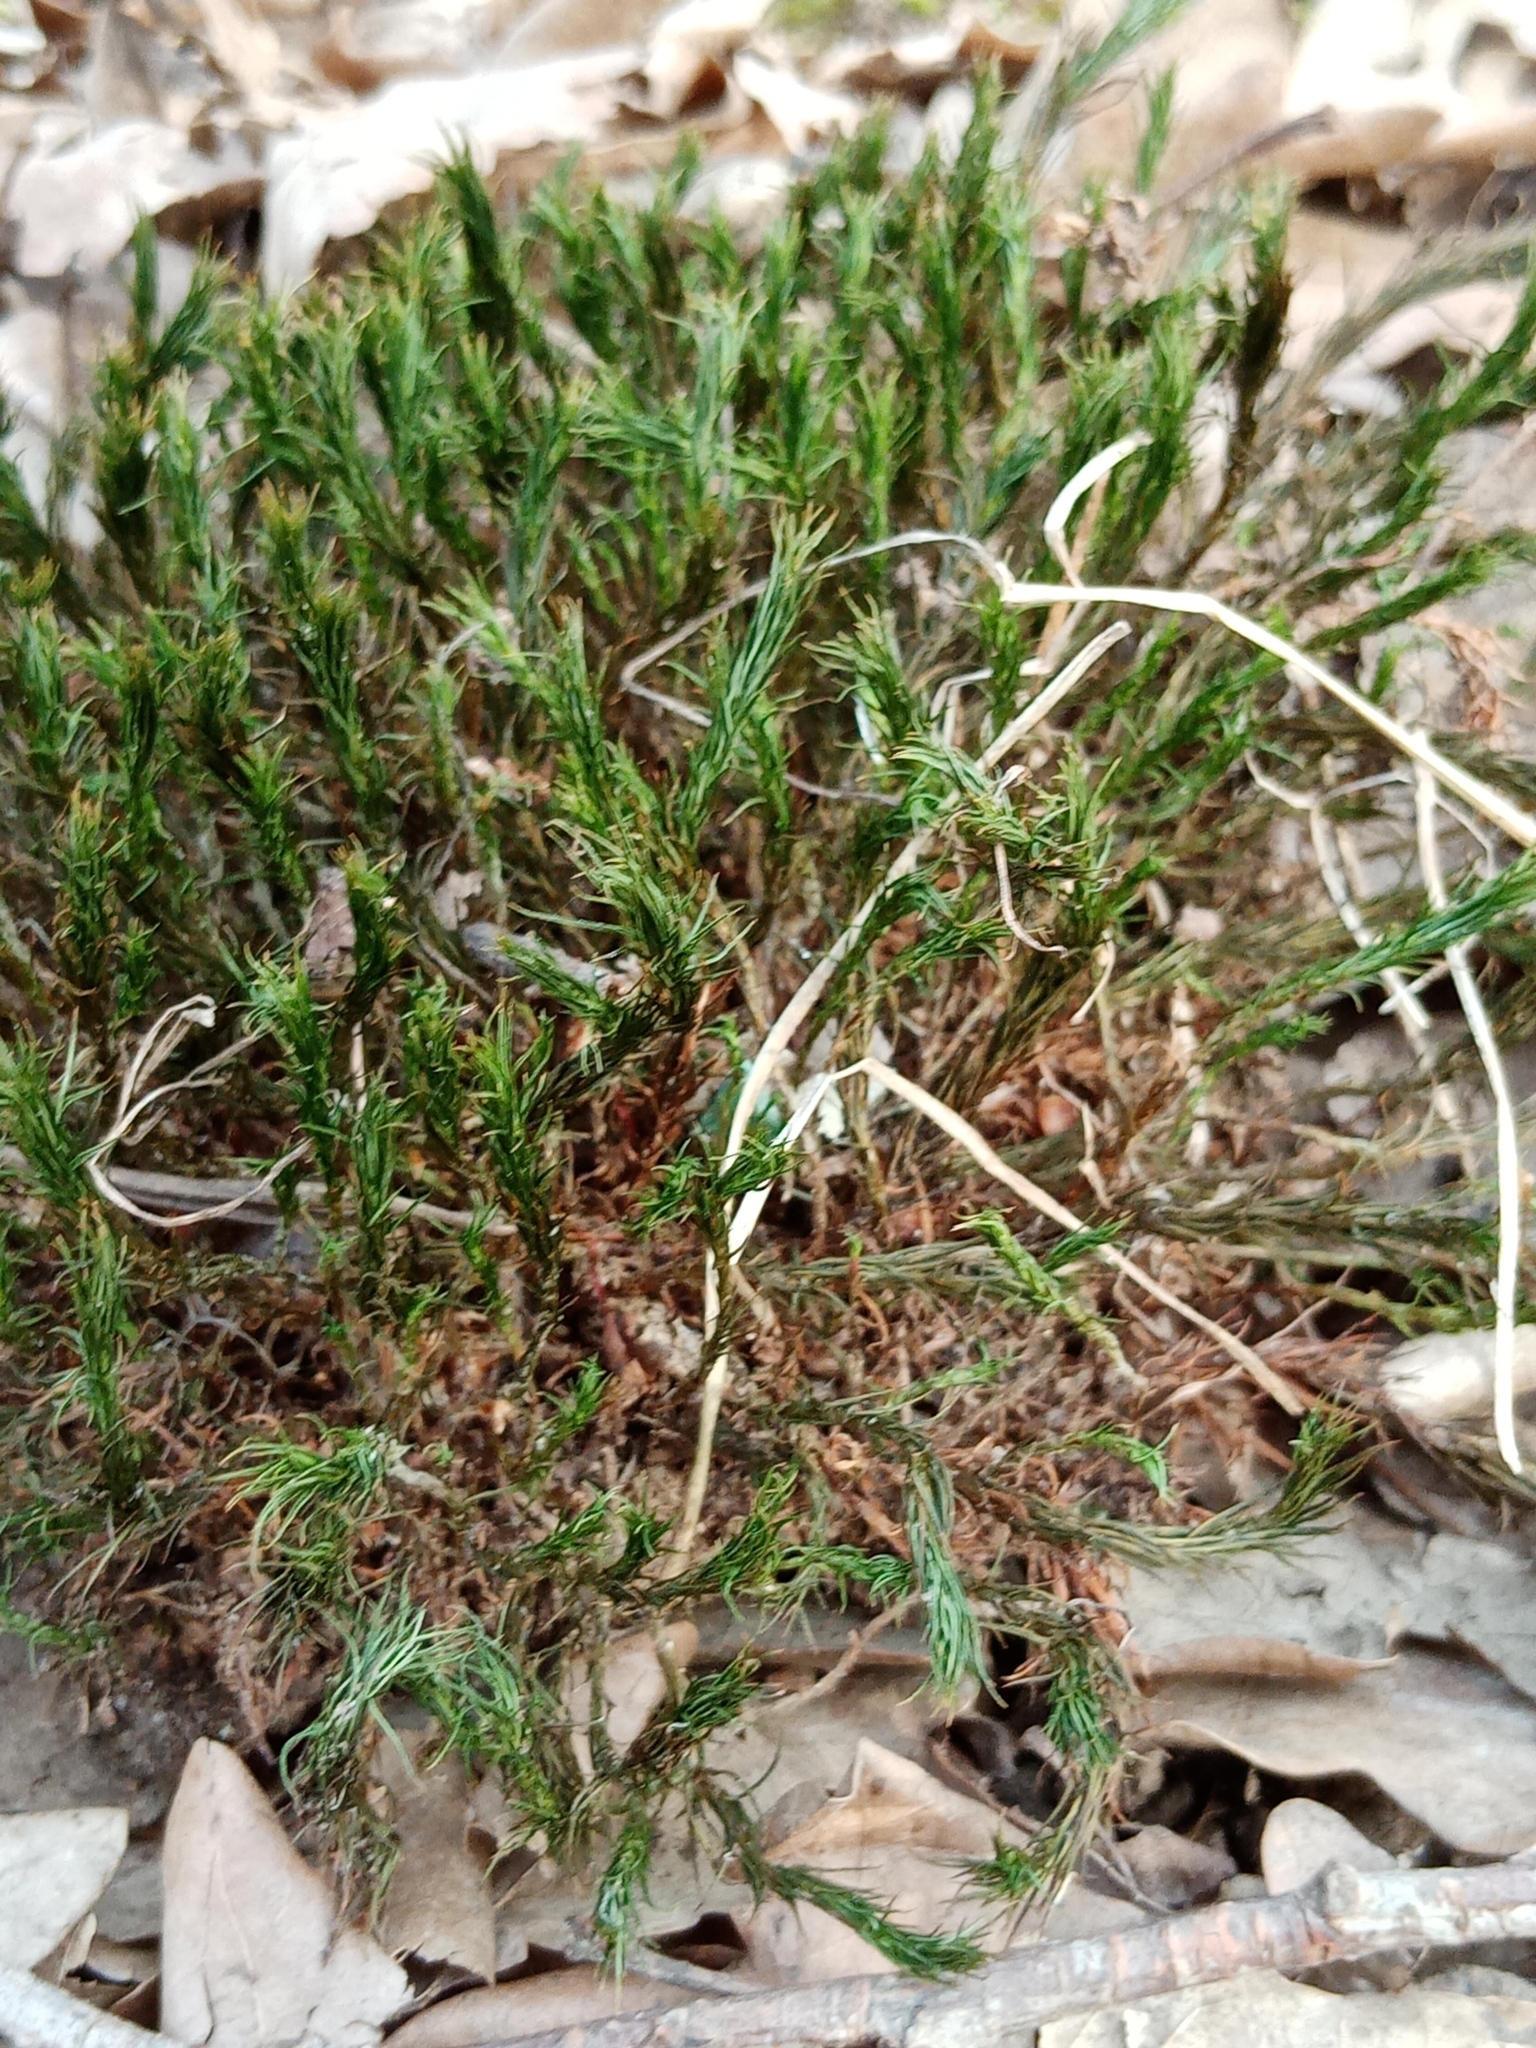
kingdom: Plantae
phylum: Bryophyta
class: Polytrichopsida
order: Polytrichales
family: Polytrichaceae
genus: Polytrichum
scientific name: Polytrichum formosum
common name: Bank haircap moss
